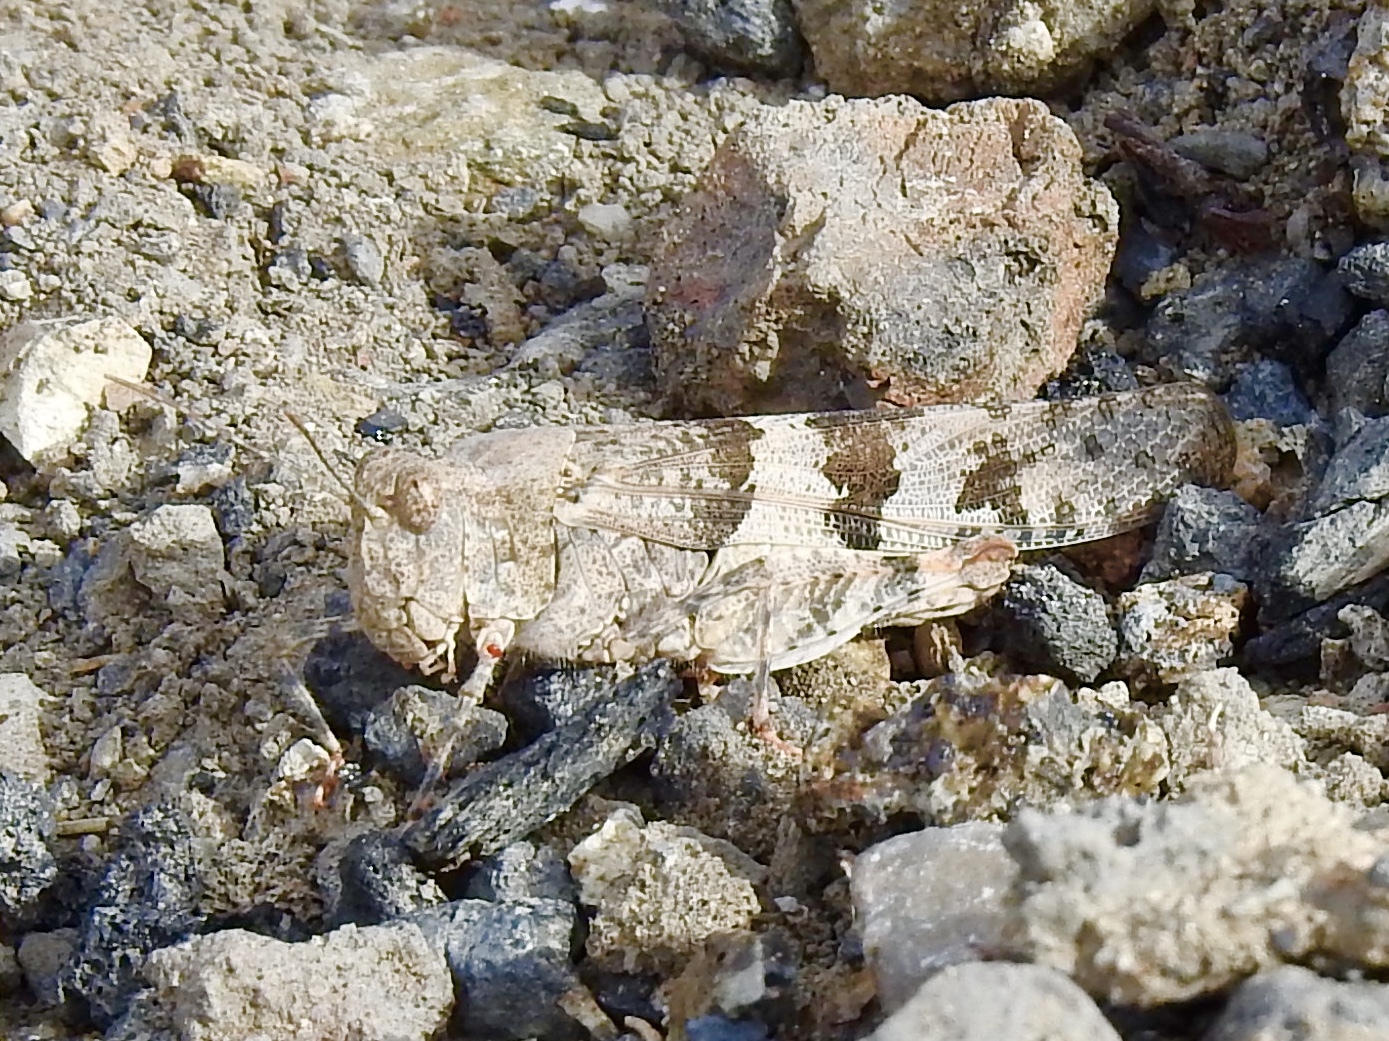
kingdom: Animalia
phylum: Arthropoda
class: Insecta
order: Orthoptera
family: Acrididae
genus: Trimerotropis
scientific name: Trimerotropis pallidipennis
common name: Pallid-winged grasshopper
